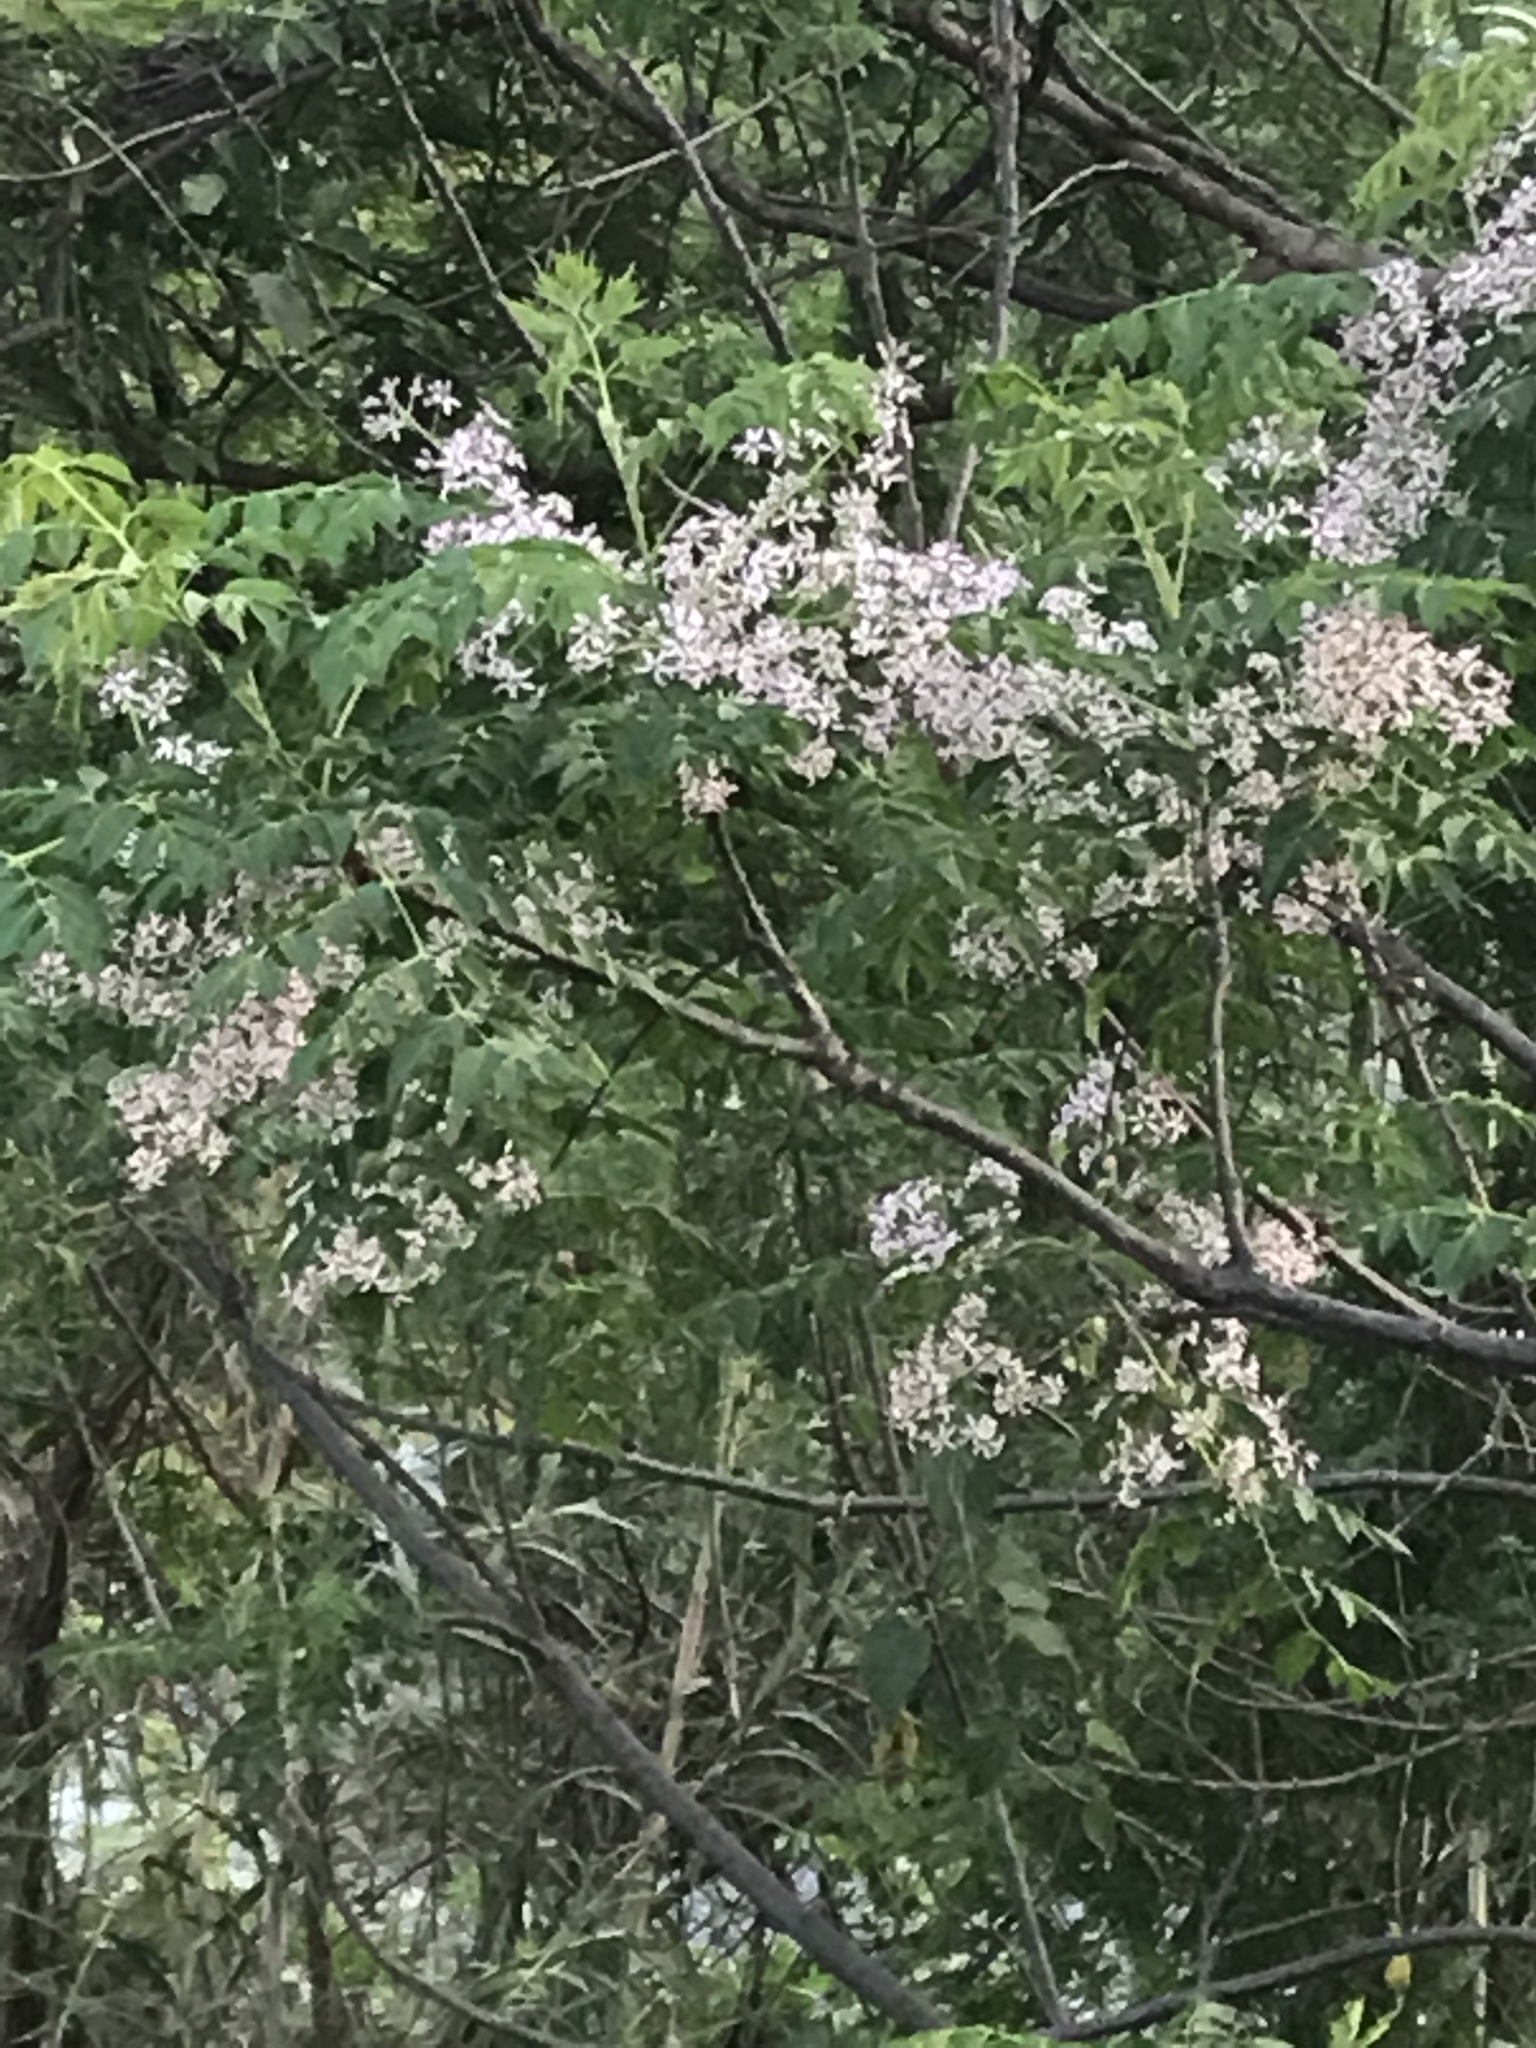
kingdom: Plantae
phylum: Tracheophyta
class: Magnoliopsida
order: Sapindales
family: Meliaceae
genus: Melia
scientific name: Melia azedarach
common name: Chinaberrytree
